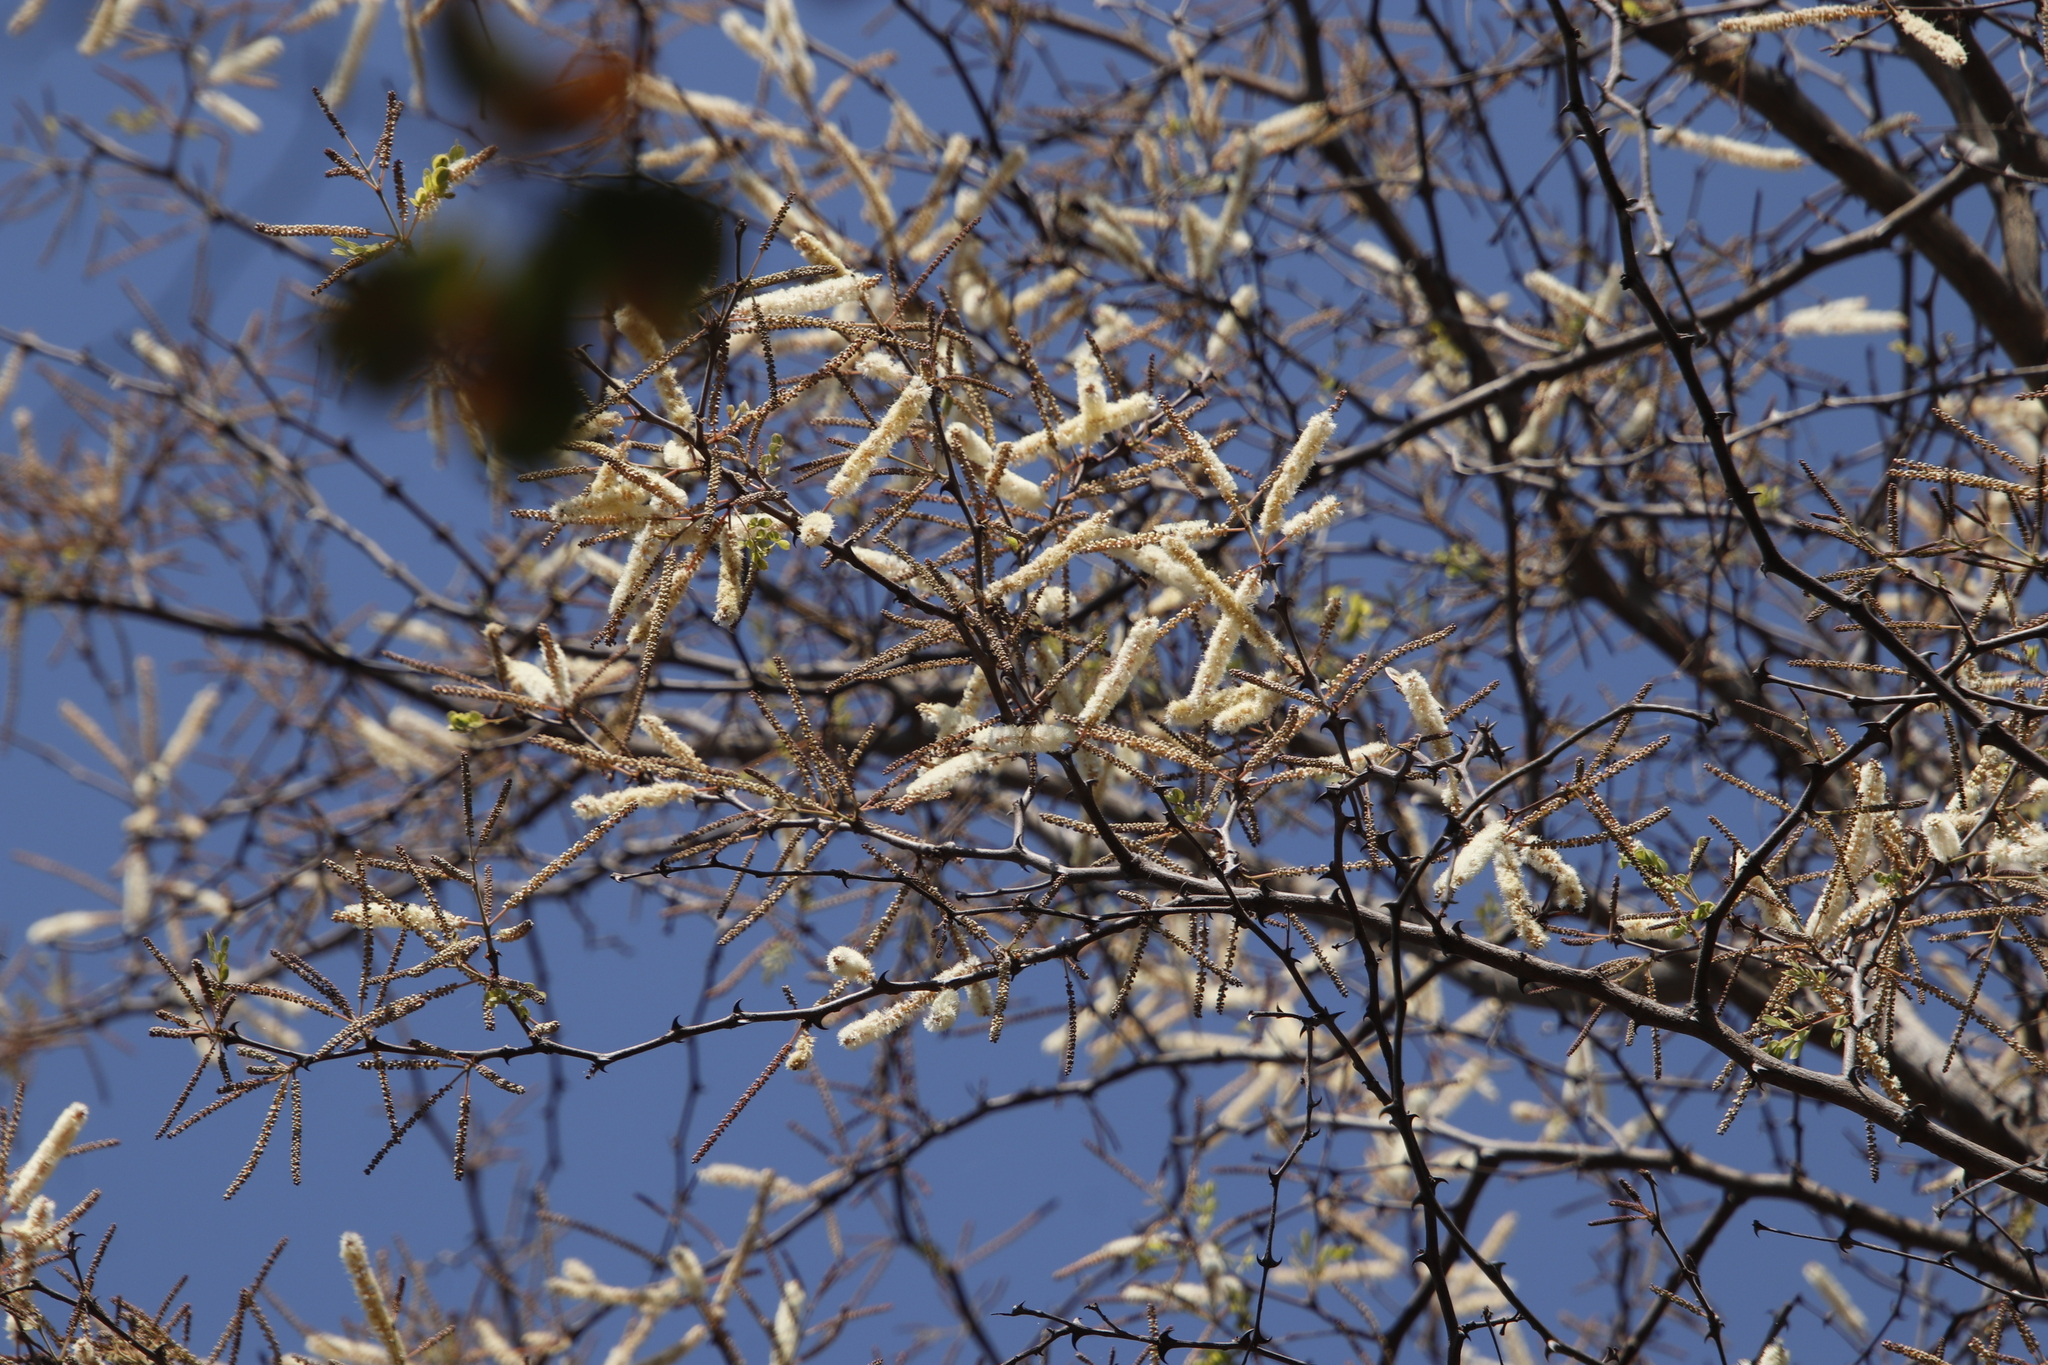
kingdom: Plantae
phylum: Tracheophyta
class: Magnoliopsida
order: Fabales
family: Fabaceae
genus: Senegalia
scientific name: Senegalia nigrescens
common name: Knobthorn
